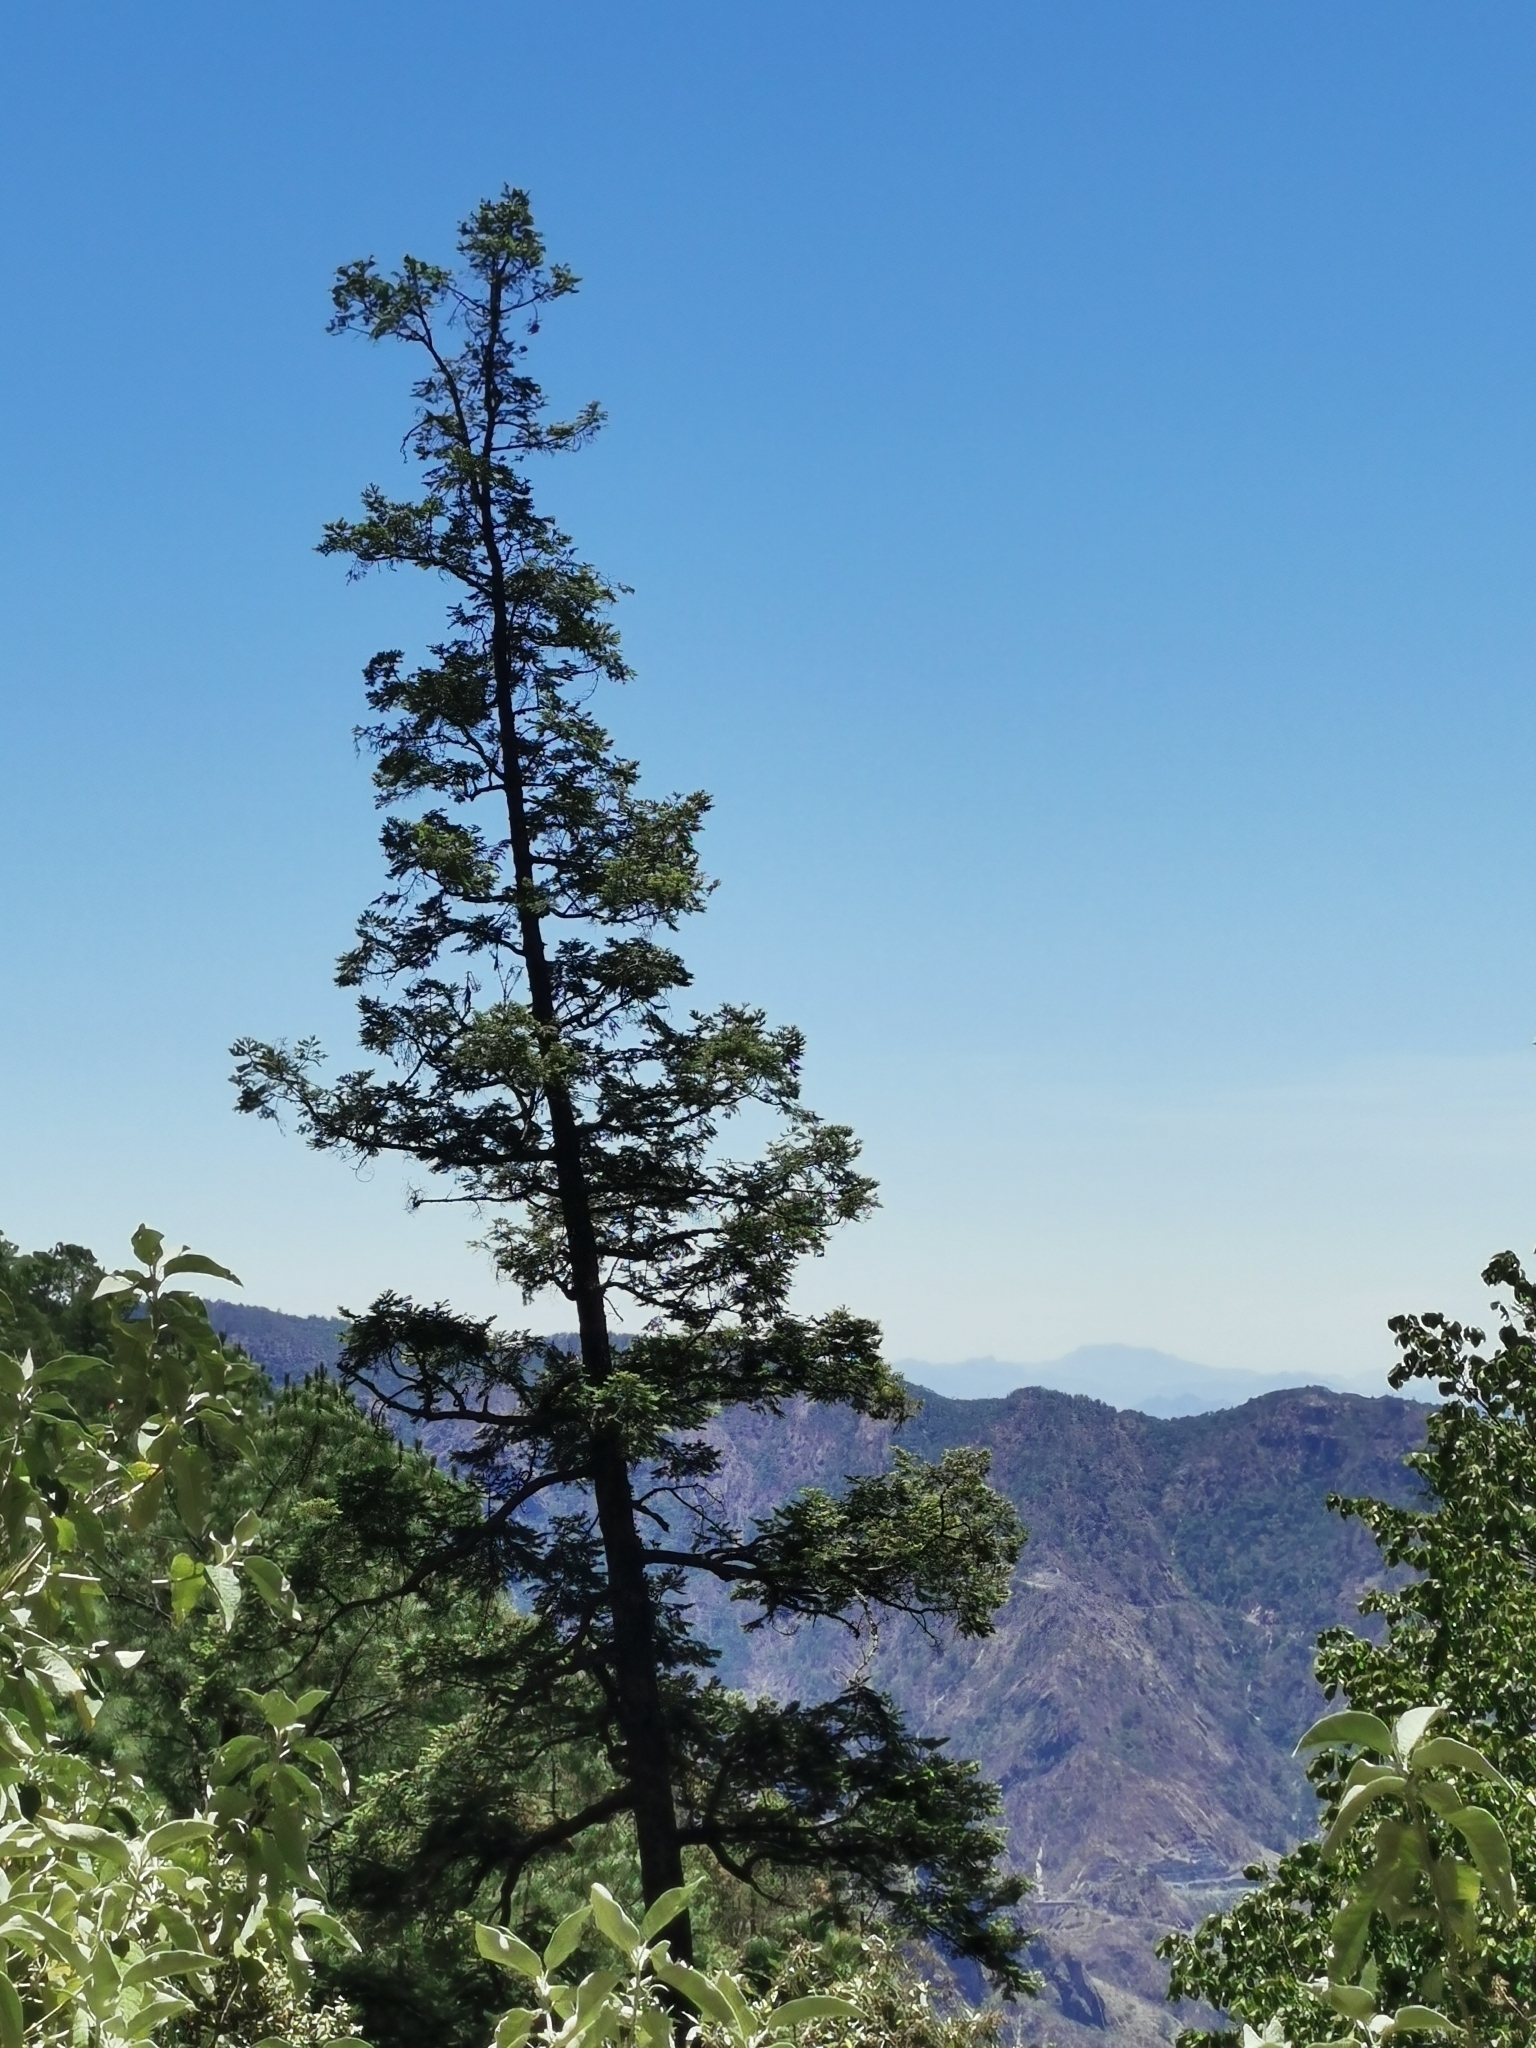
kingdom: Plantae
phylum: Tracheophyta
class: Pinopsida
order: Pinales
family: Pinaceae
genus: Abies
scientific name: Abies durangensis
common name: Durango fir
